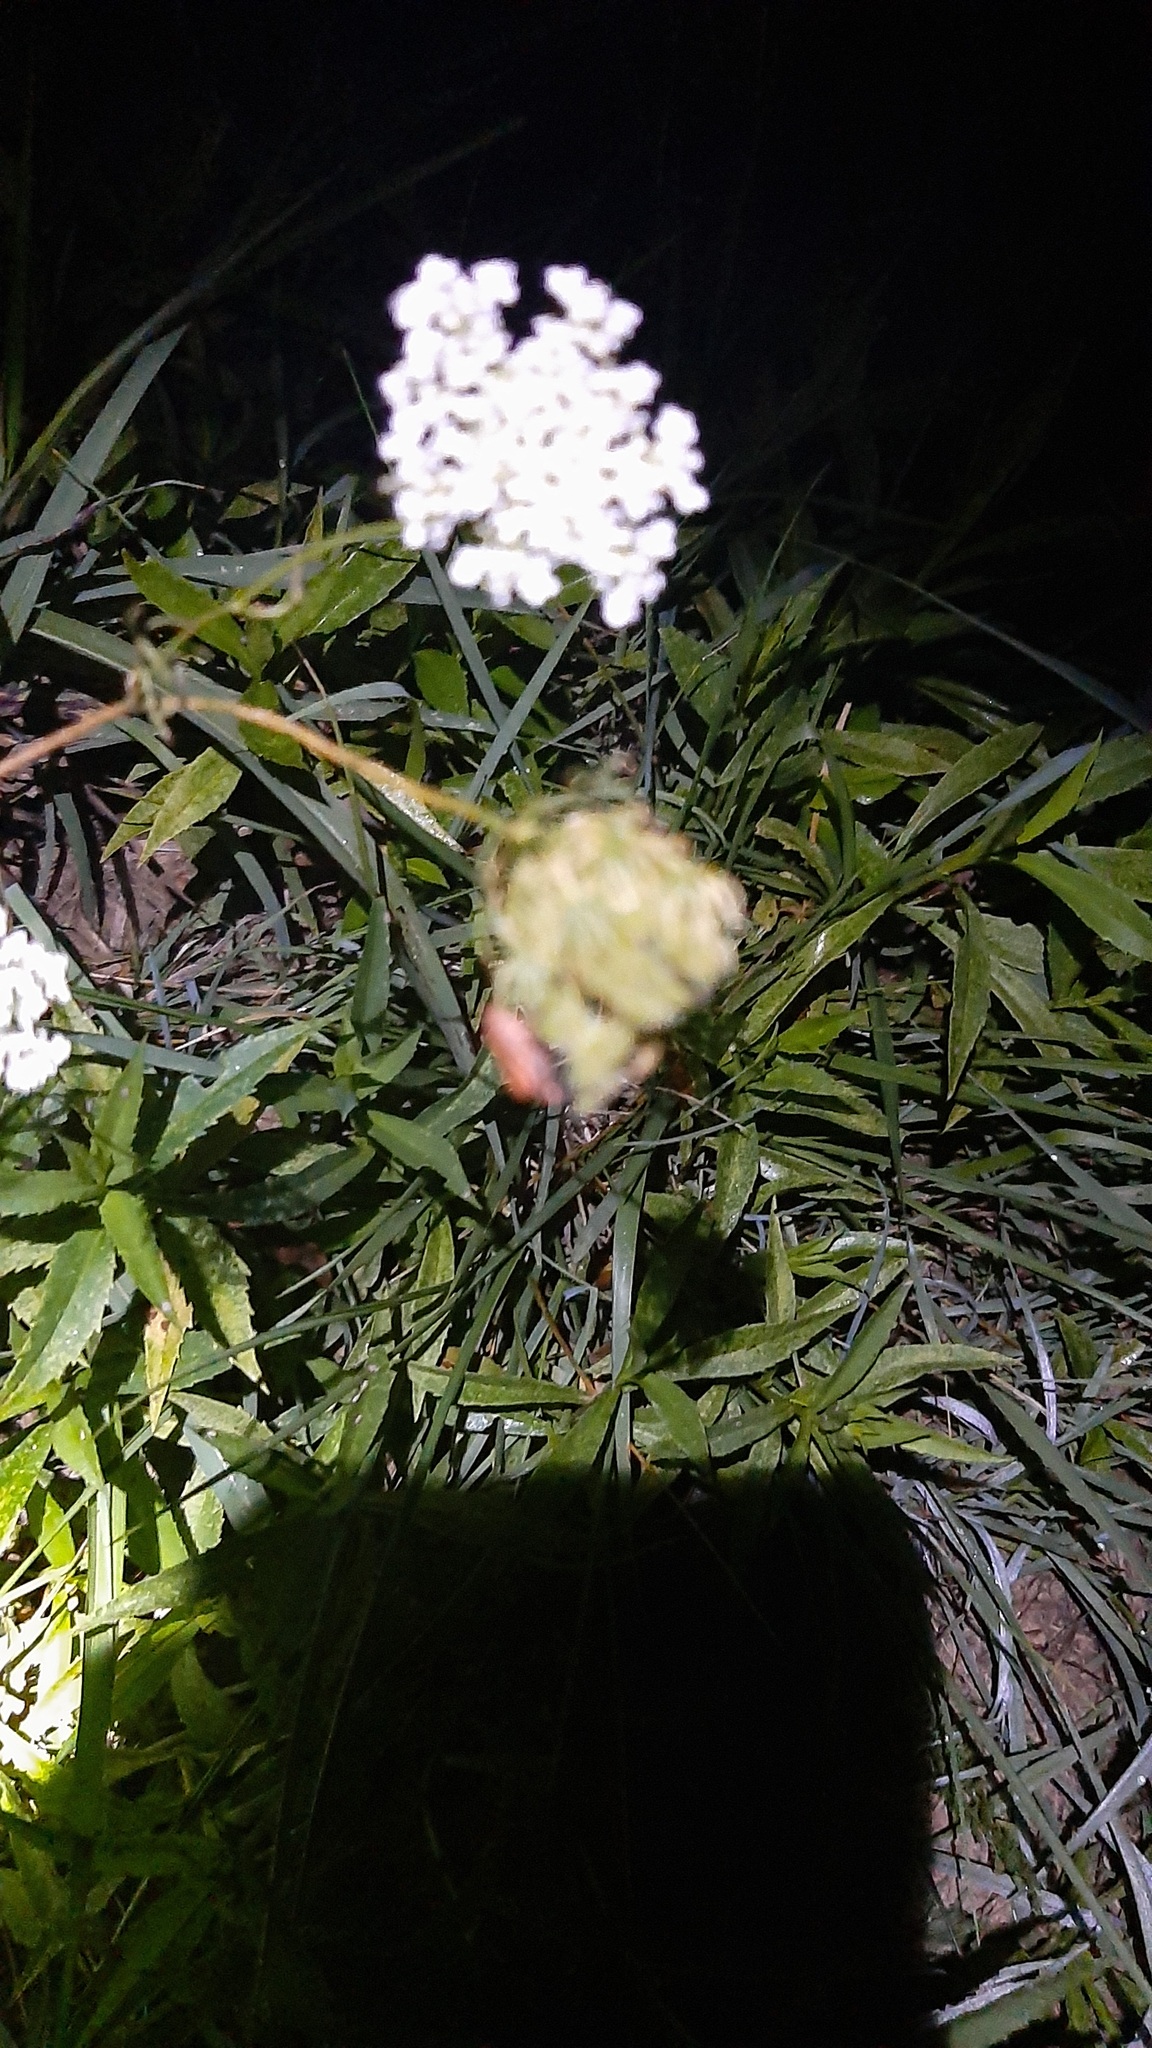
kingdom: Plantae
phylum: Tracheophyta
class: Magnoliopsida
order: Apiales
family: Apiaceae
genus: Daucus
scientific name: Daucus carota
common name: Wild carrot
